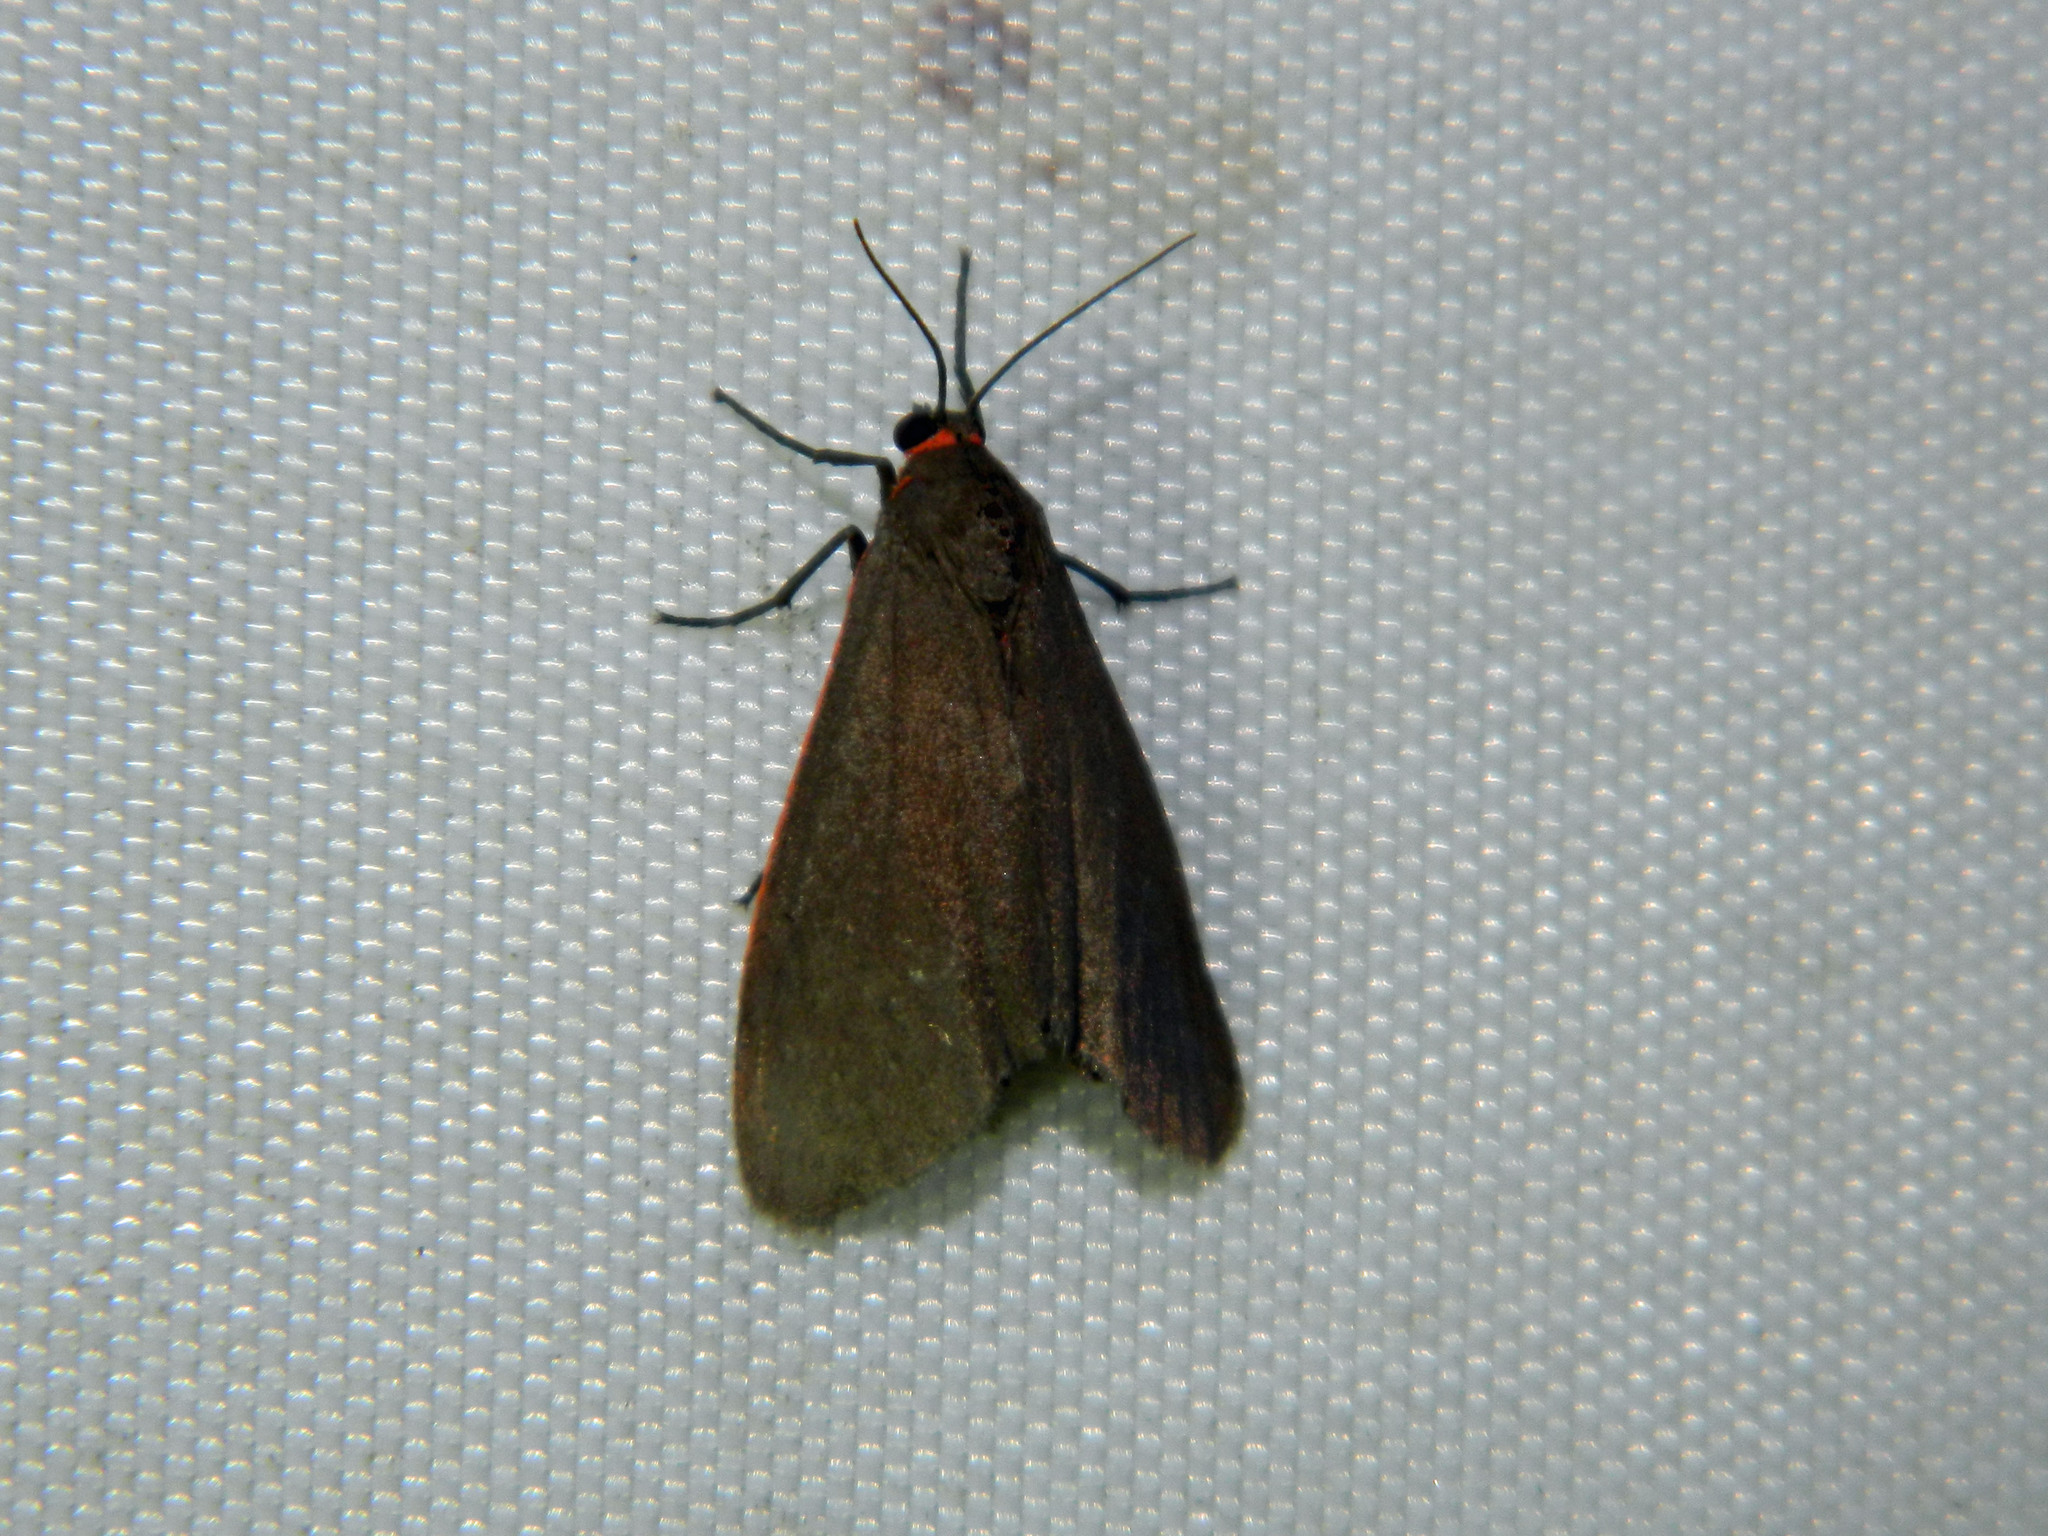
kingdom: Animalia
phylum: Arthropoda
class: Insecta
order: Lepidoptera
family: Erebidae
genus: Virbia
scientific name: Virbia laeta
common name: Joyful holomelina moth
